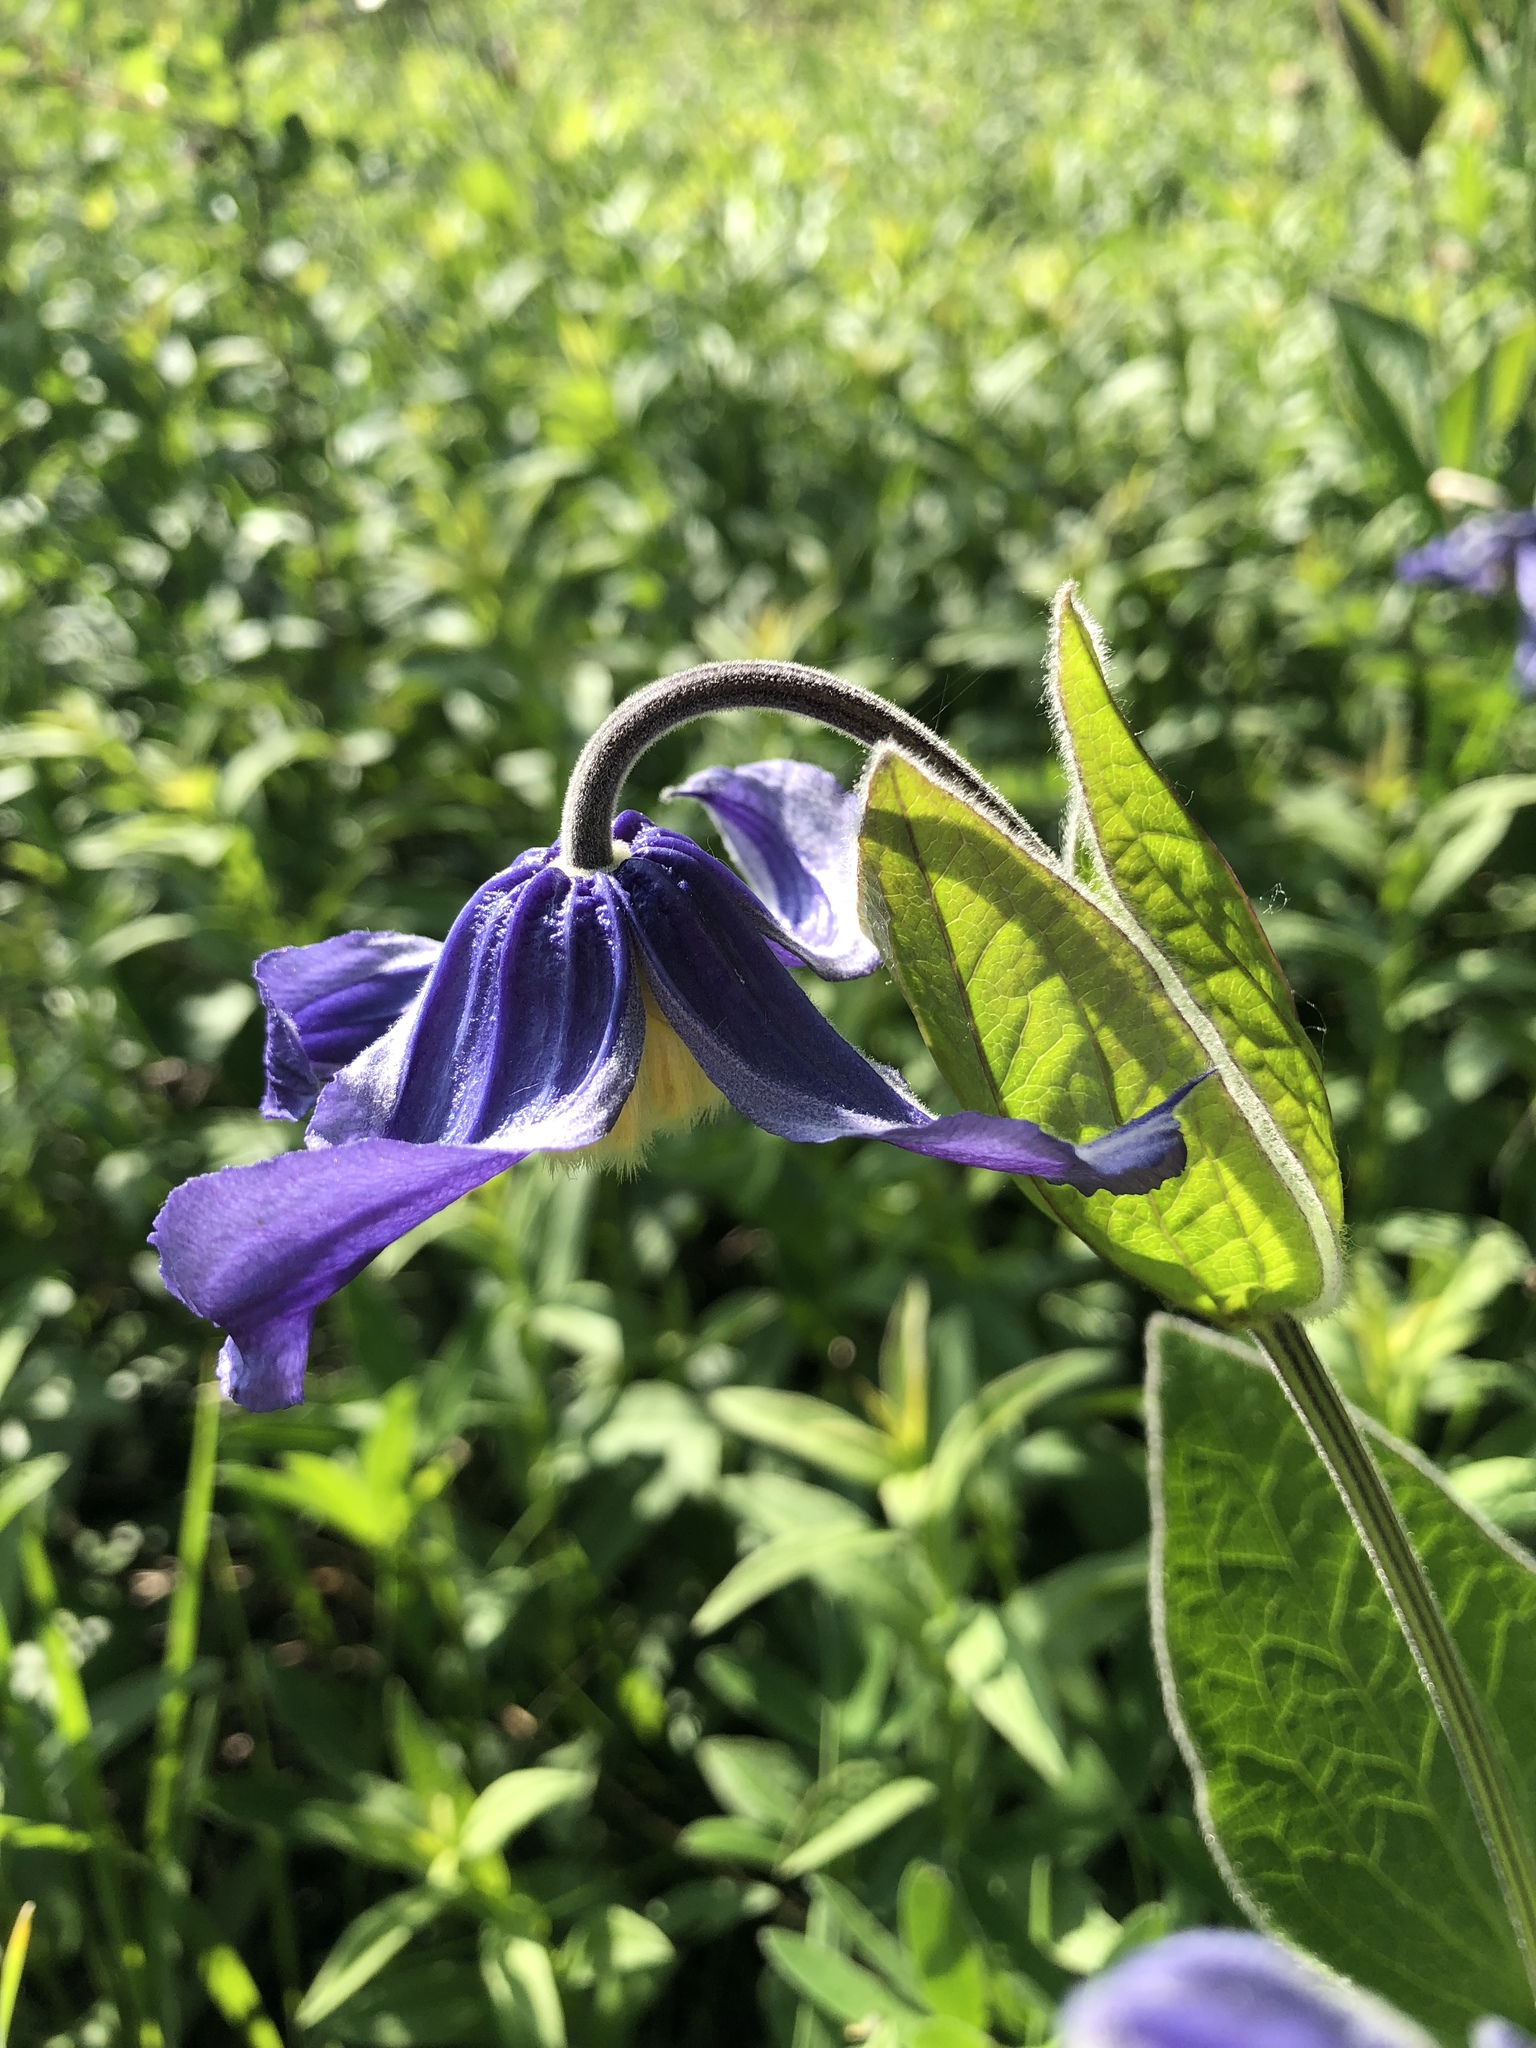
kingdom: Plantae
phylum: Tracheophyta
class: Magnoliopsida
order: Ranunculales
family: Ranunculaceae
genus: Clematis
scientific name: Clematis integrifolia
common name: Solitary clematis
